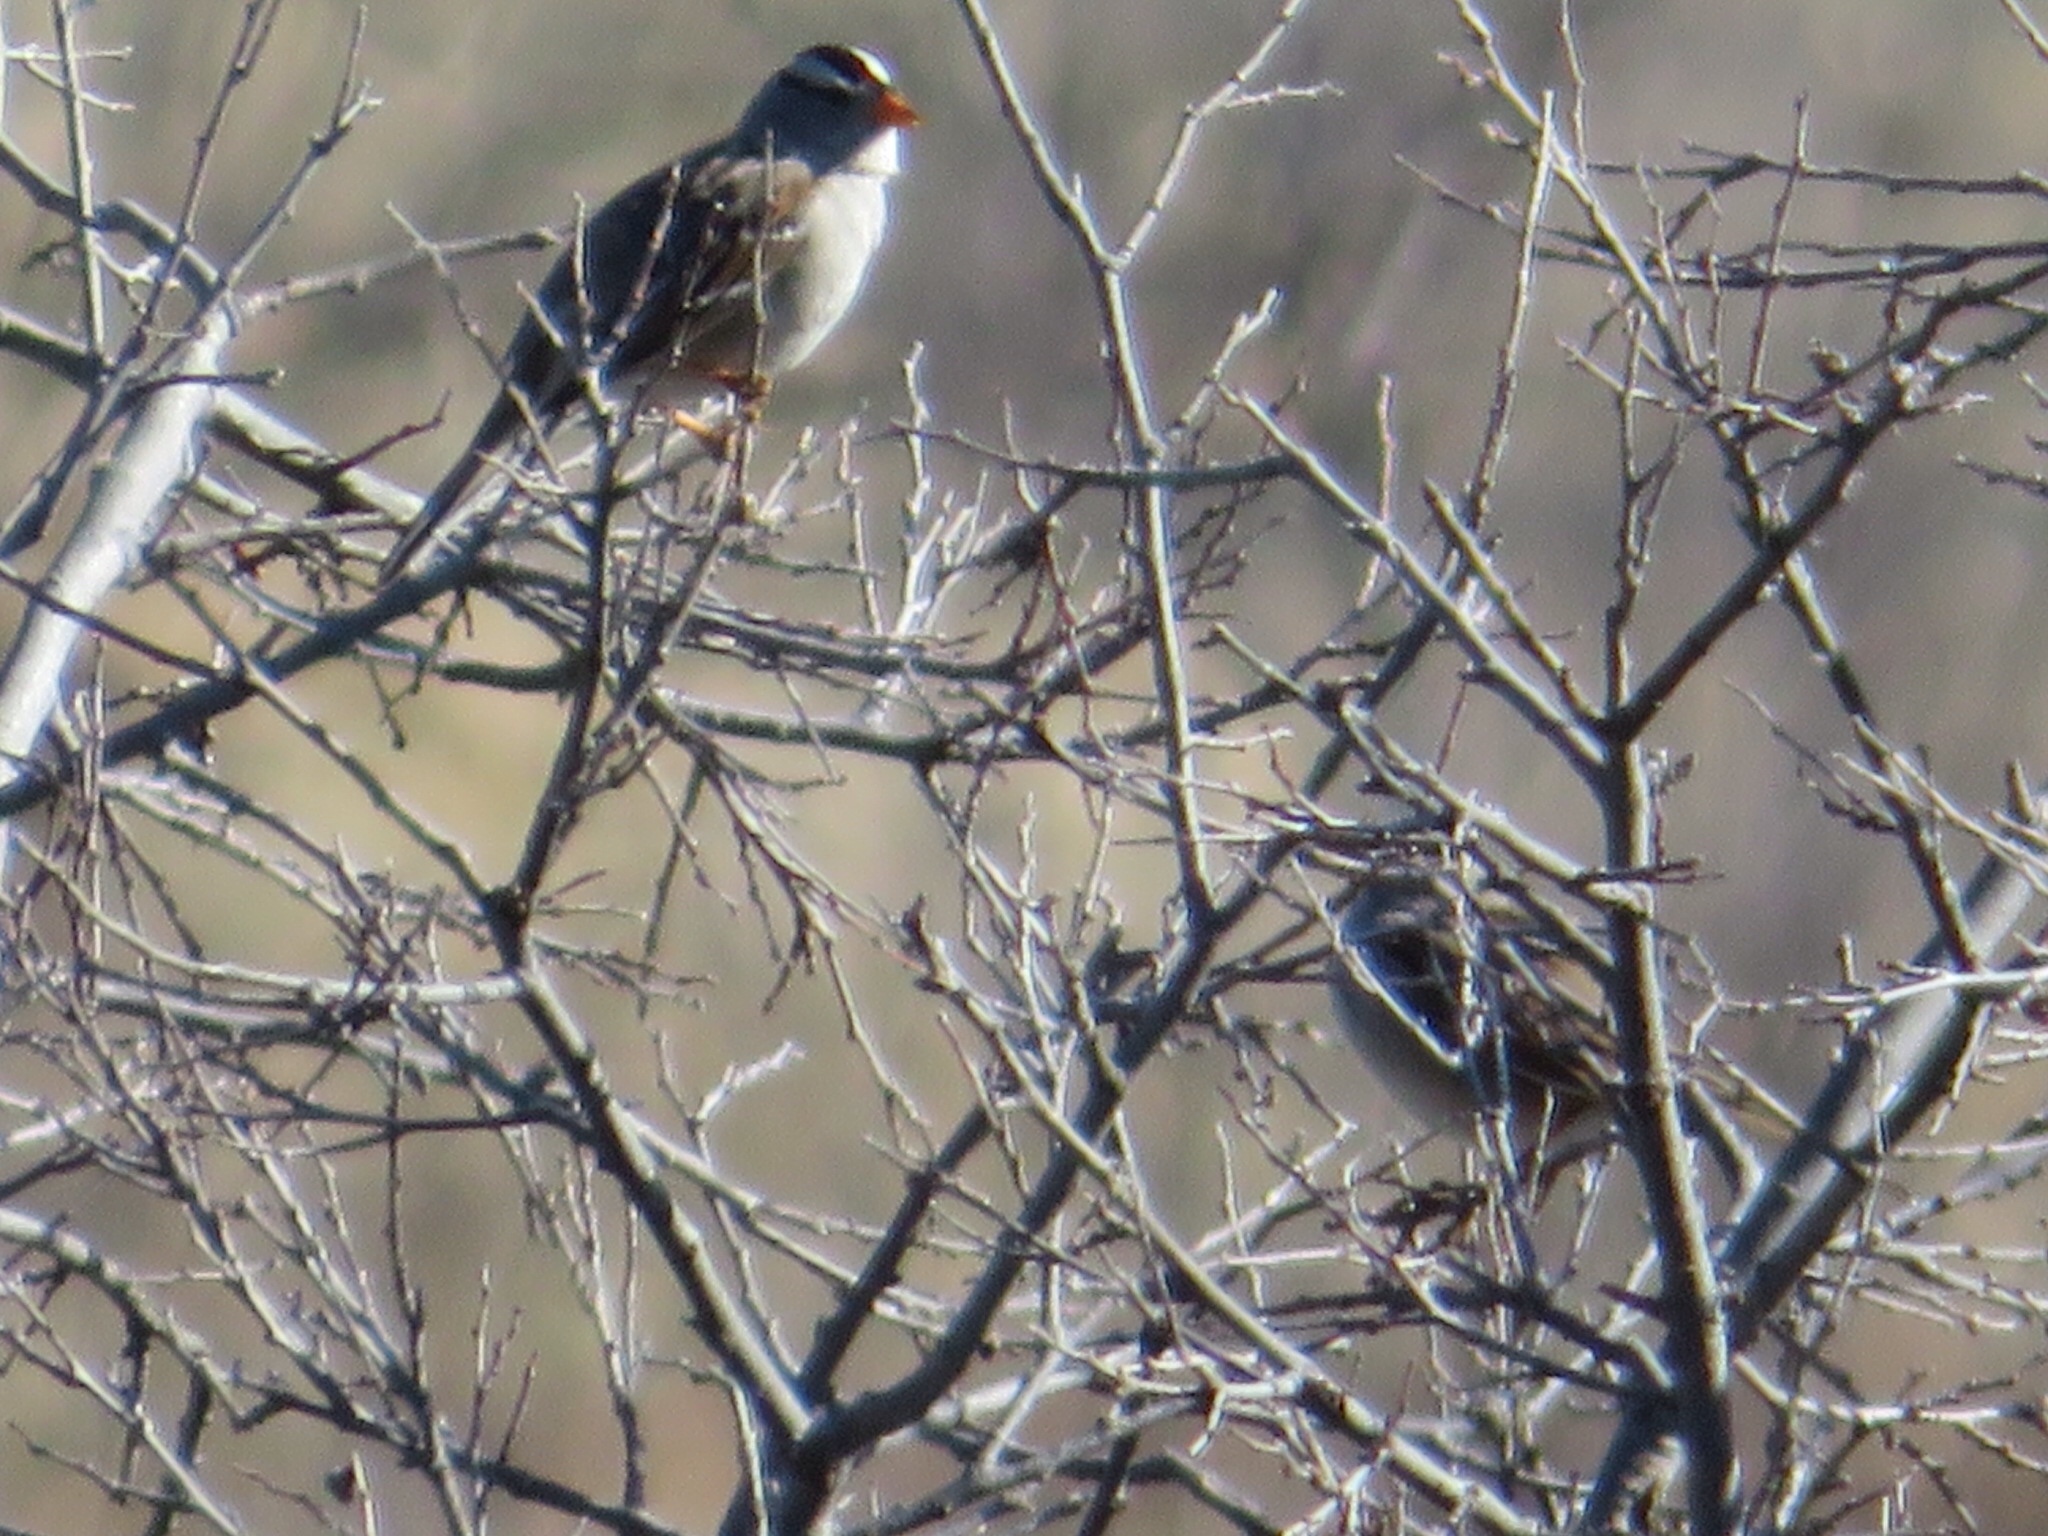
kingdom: Animalia
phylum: Chordata
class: Aves
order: Passeriformes
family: Passerellidae
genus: Zonotrichia
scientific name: Zonotrichia leucophrys
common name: White-crowned sparrow
